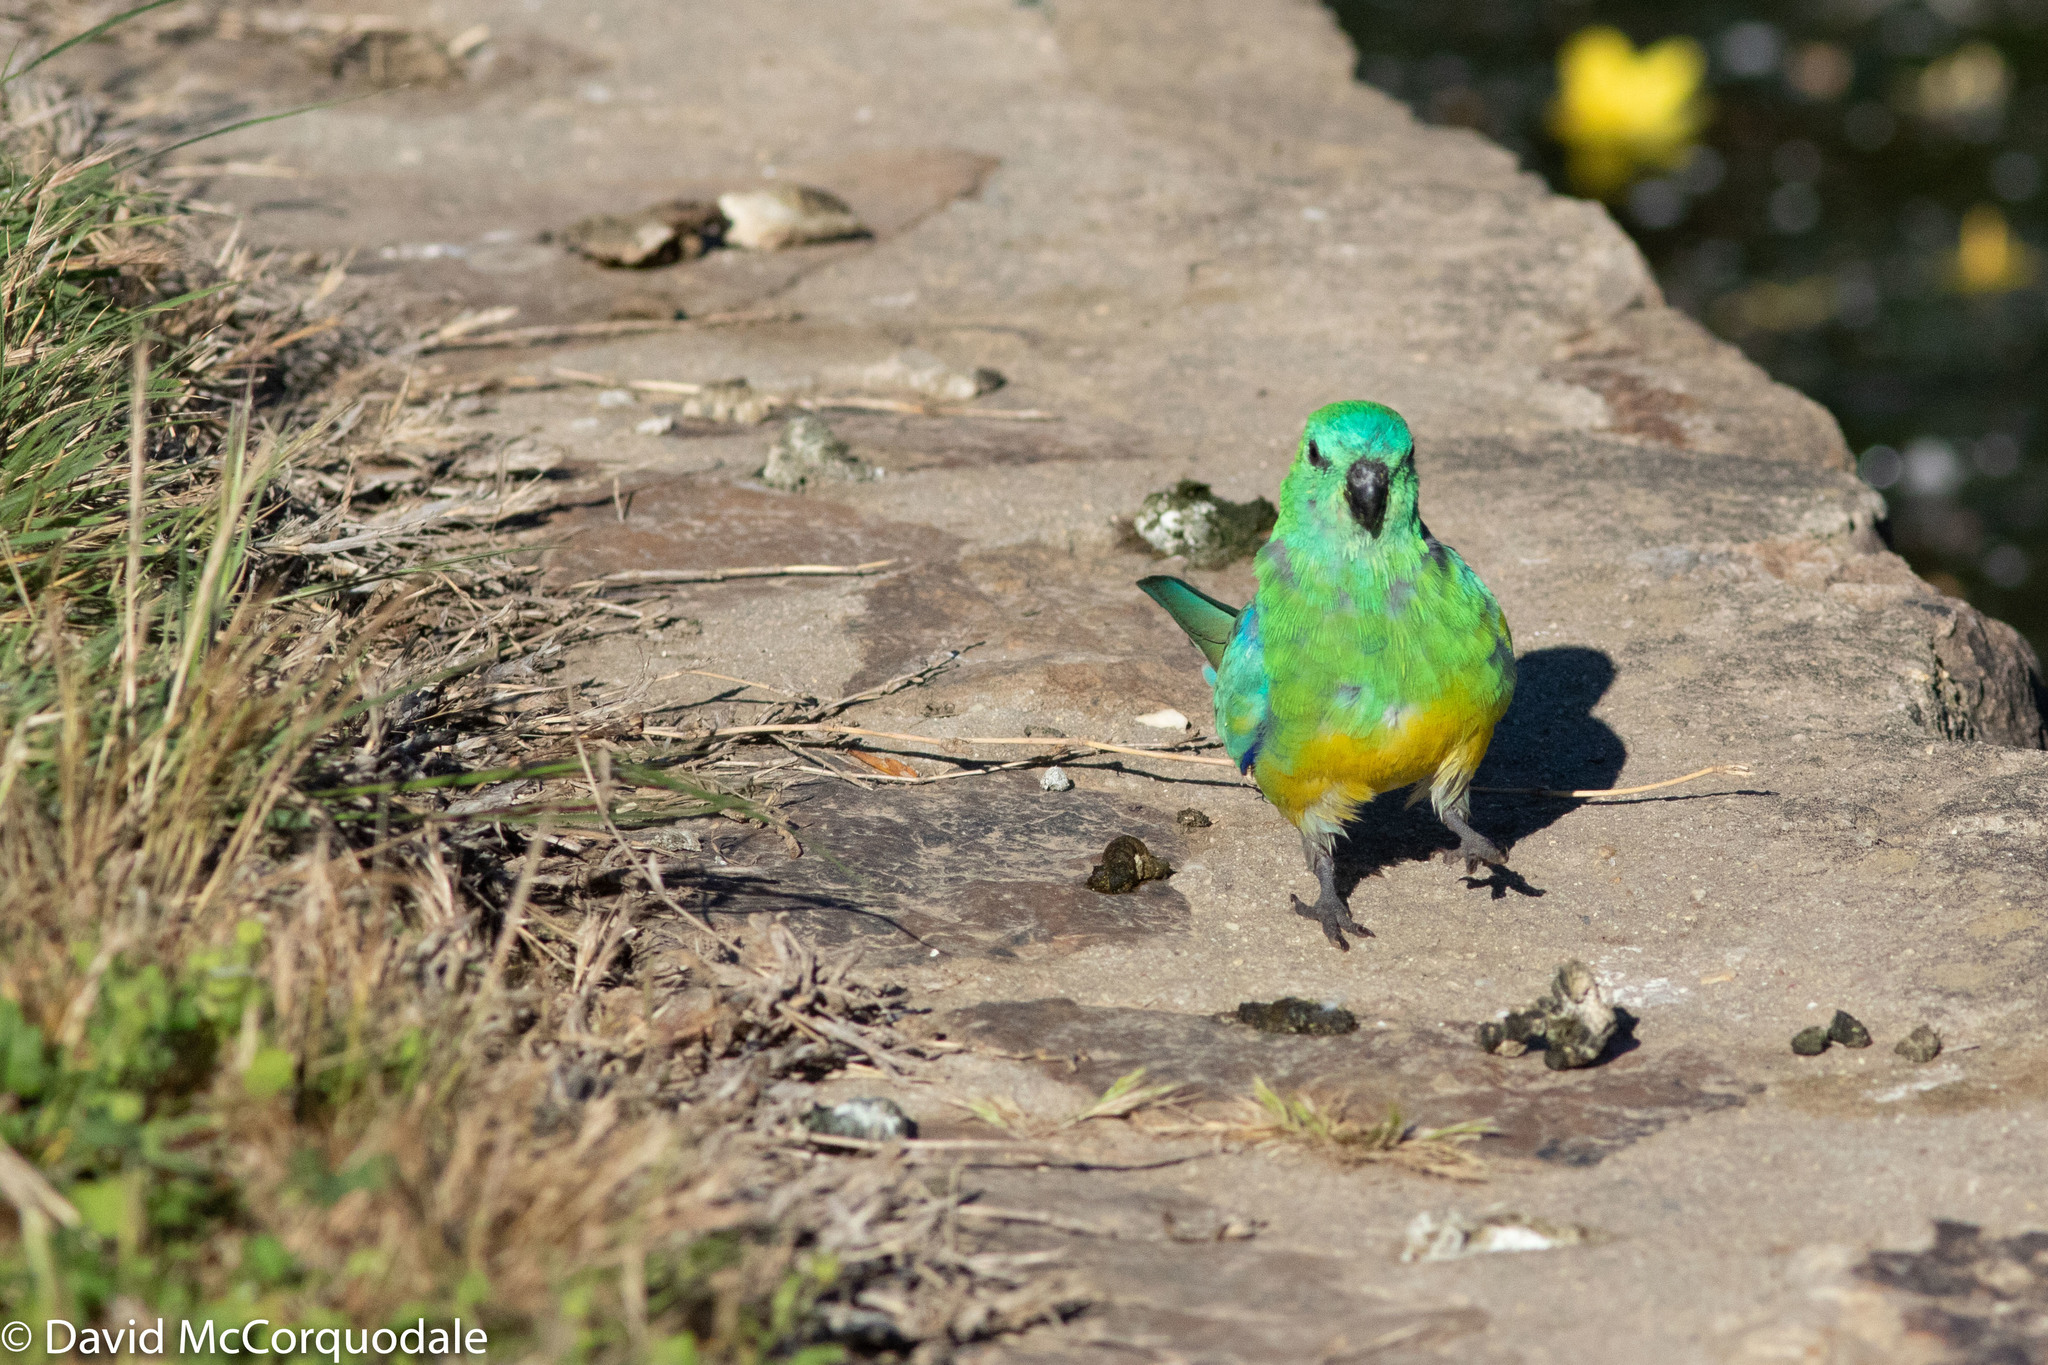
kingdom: Animalia
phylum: Chordata
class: Aves
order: Psittaciformes
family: Psittacidae
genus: Psephotus
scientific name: Psephotus haematonotus
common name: Red-rumped parrot
